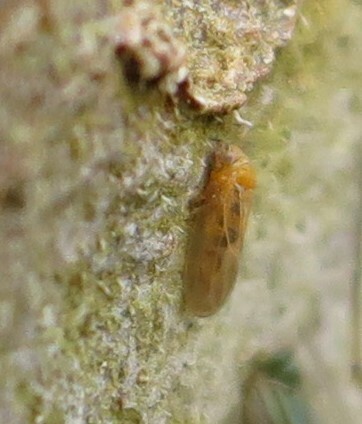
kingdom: Animalia
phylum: Arthropoda
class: Insecta
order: Hemiptera
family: Aphalaridae
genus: Ctenarytaina
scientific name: Ctenarytaina spatulata
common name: Rose gum psillid
